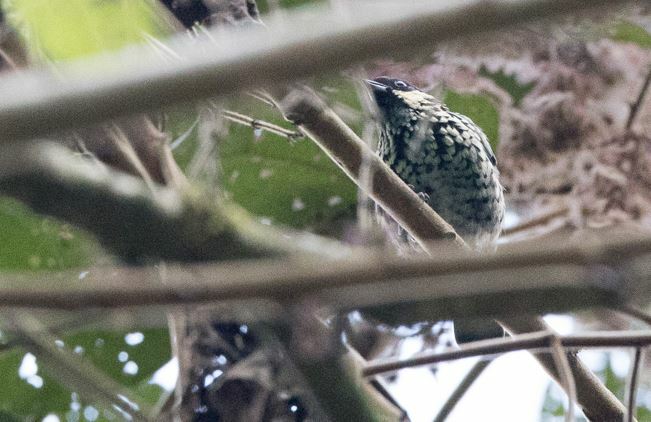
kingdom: Animalia
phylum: Chordata
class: Aves
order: Passeriformes
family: Thraupidae
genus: Tangara
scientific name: Tangara nigroviridis
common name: Beryl-spangled tanager
